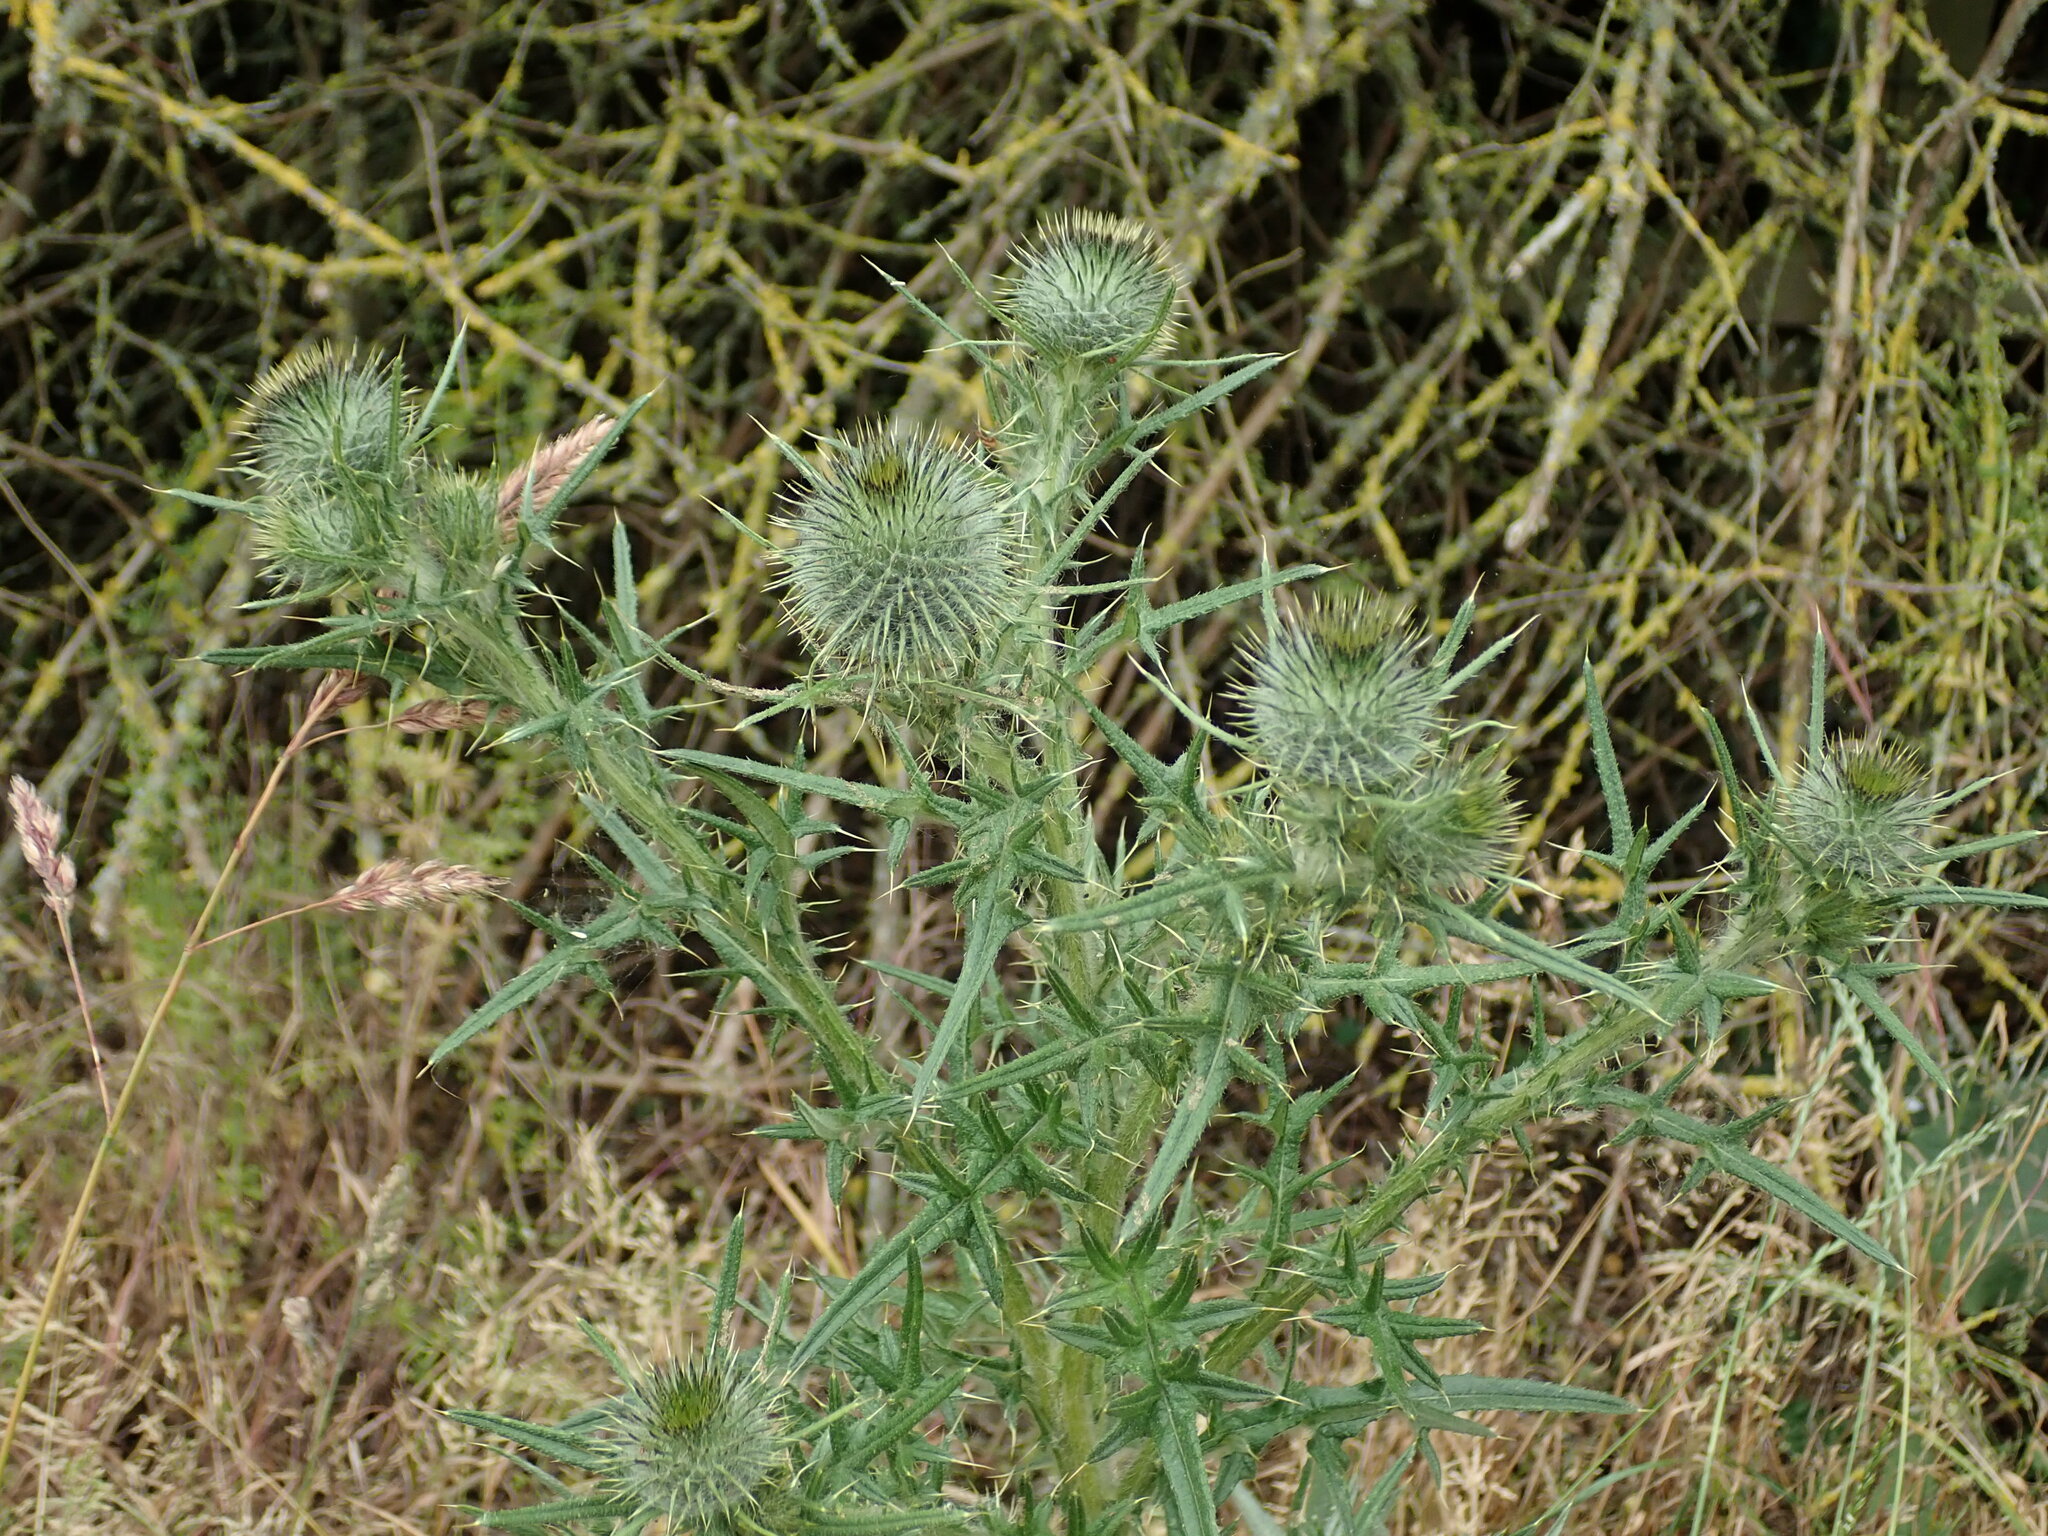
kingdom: Plantae
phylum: Tracheophyta
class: Magnoliopsida
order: Asterales
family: Asteraceae
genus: Cirsium
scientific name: Cirsium vulgare
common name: Bull thistle
